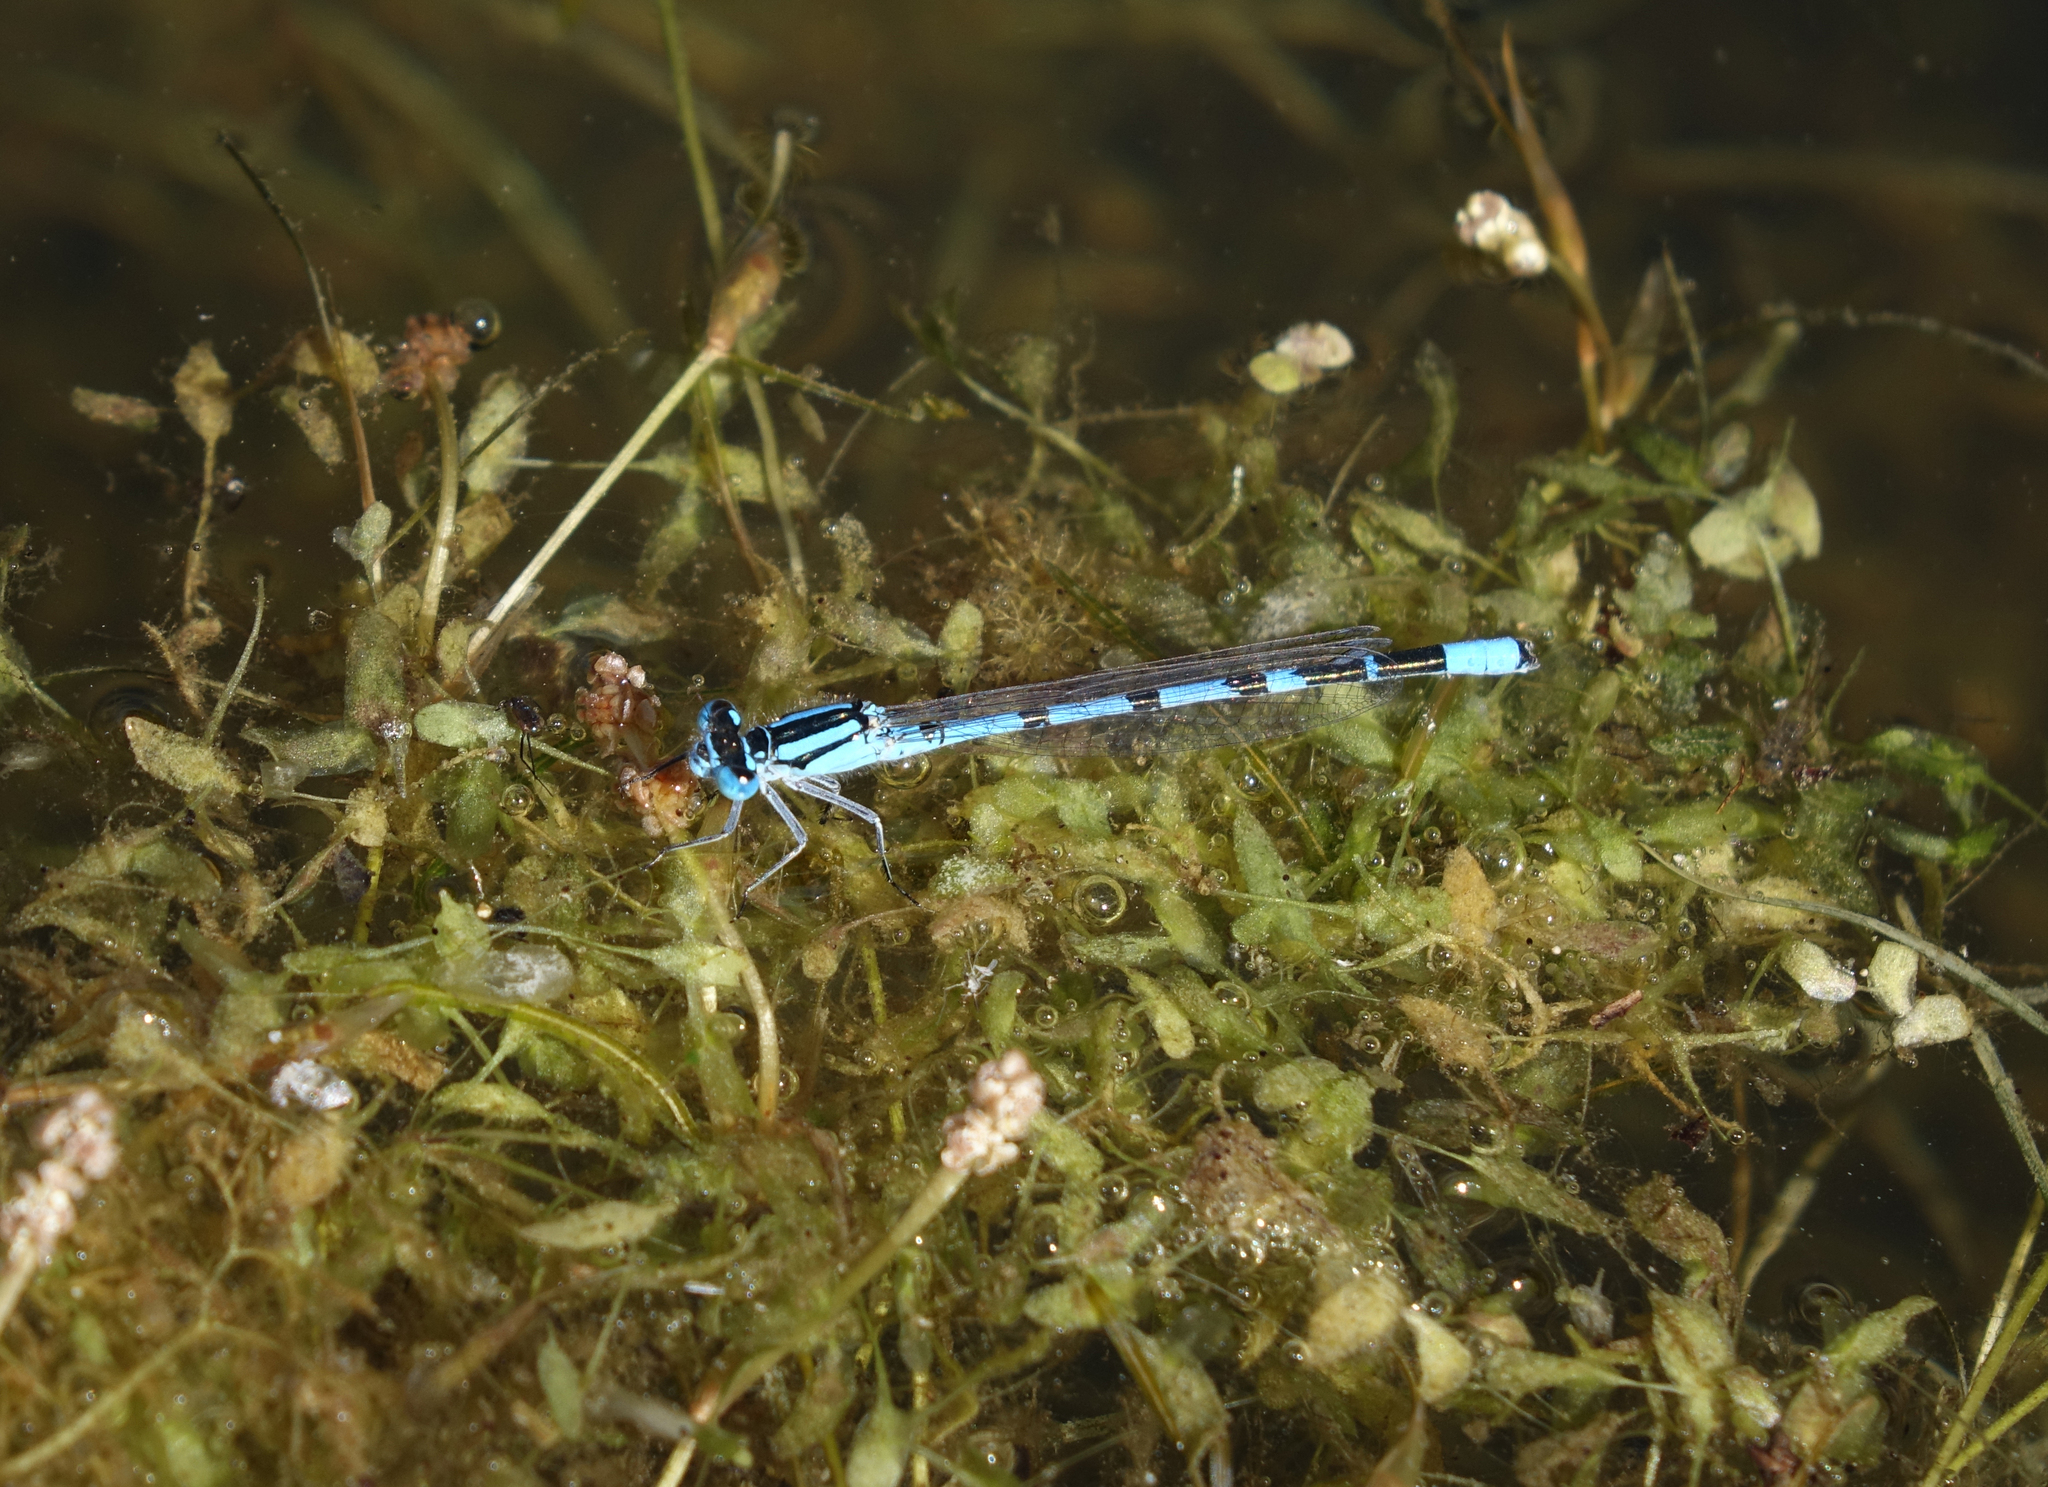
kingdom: Plantae
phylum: Tracheophyta
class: Liliopsida
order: Alismatales
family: Araceae
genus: Lemna
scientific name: Lemna trisulca
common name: Ivy-leaved duckweed
